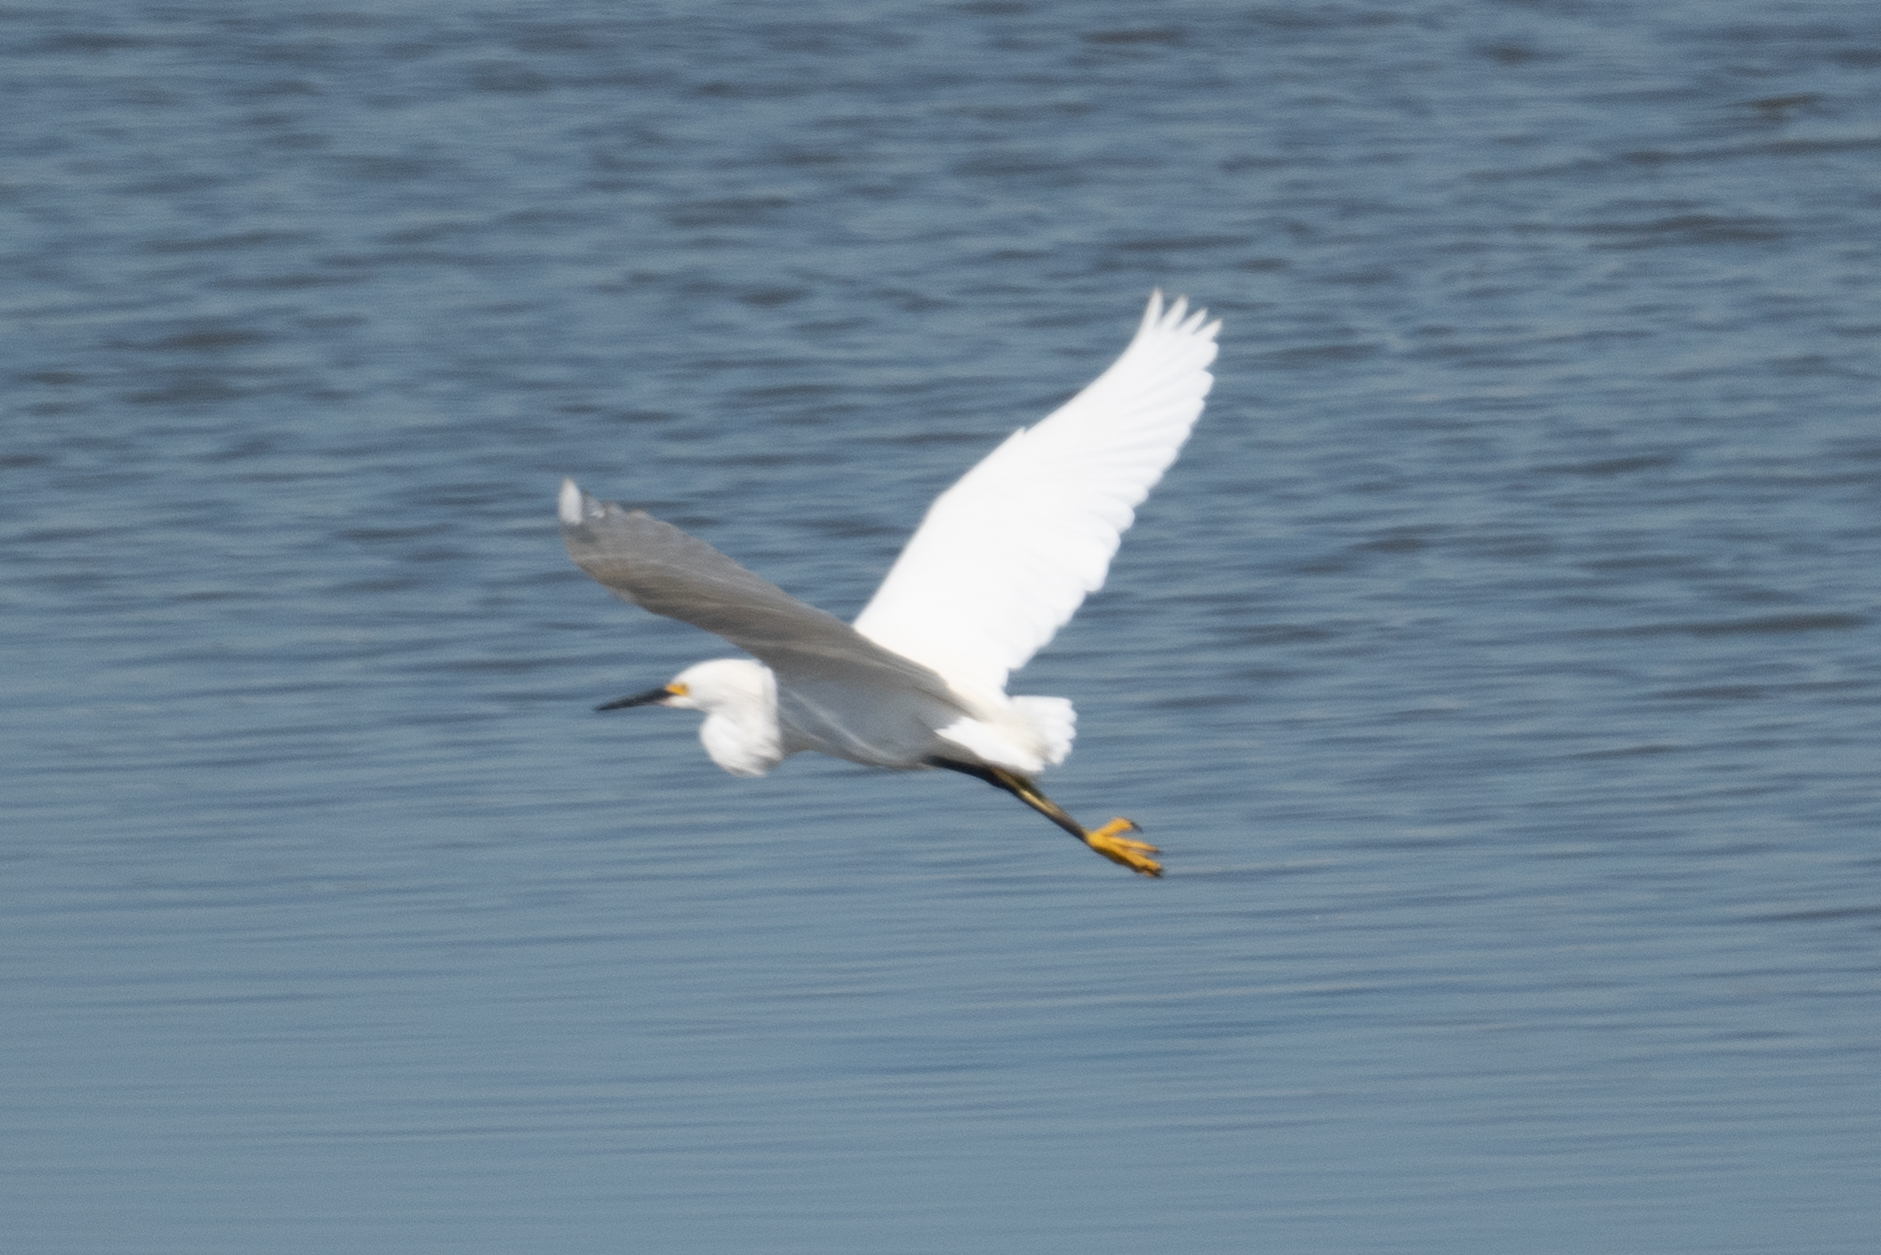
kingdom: Animalia
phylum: Chordata
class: Aves
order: Pelecaniformes
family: Ardeidae
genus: Egretta
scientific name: Egretta thula
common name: Snowy egret
